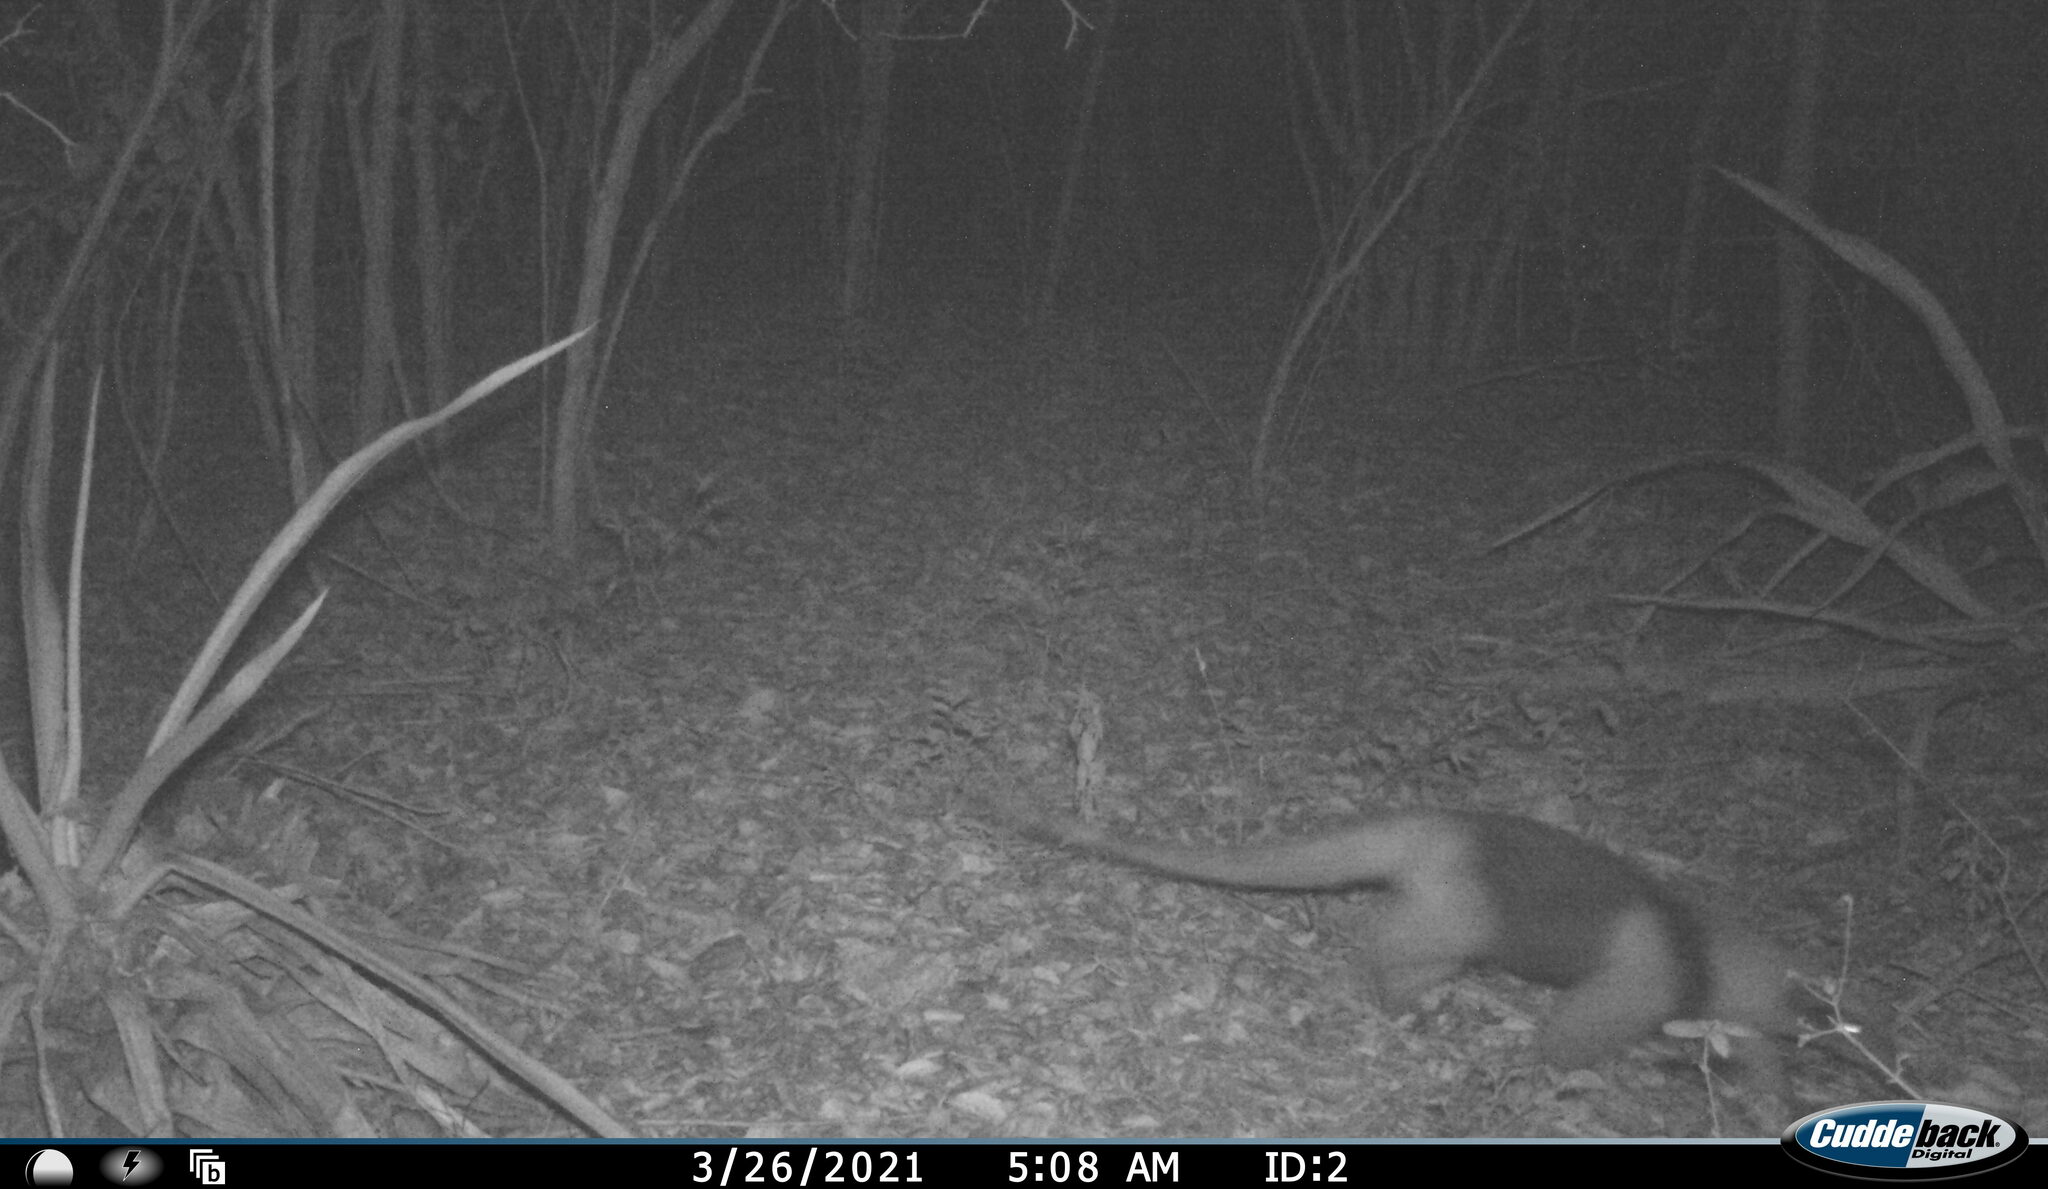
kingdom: Animalia
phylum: Chordata
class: Mammalia
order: Pilosa
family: Myrmecophagidae
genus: Tamandua
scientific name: Tamandua mexicana
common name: Northern tamandua
